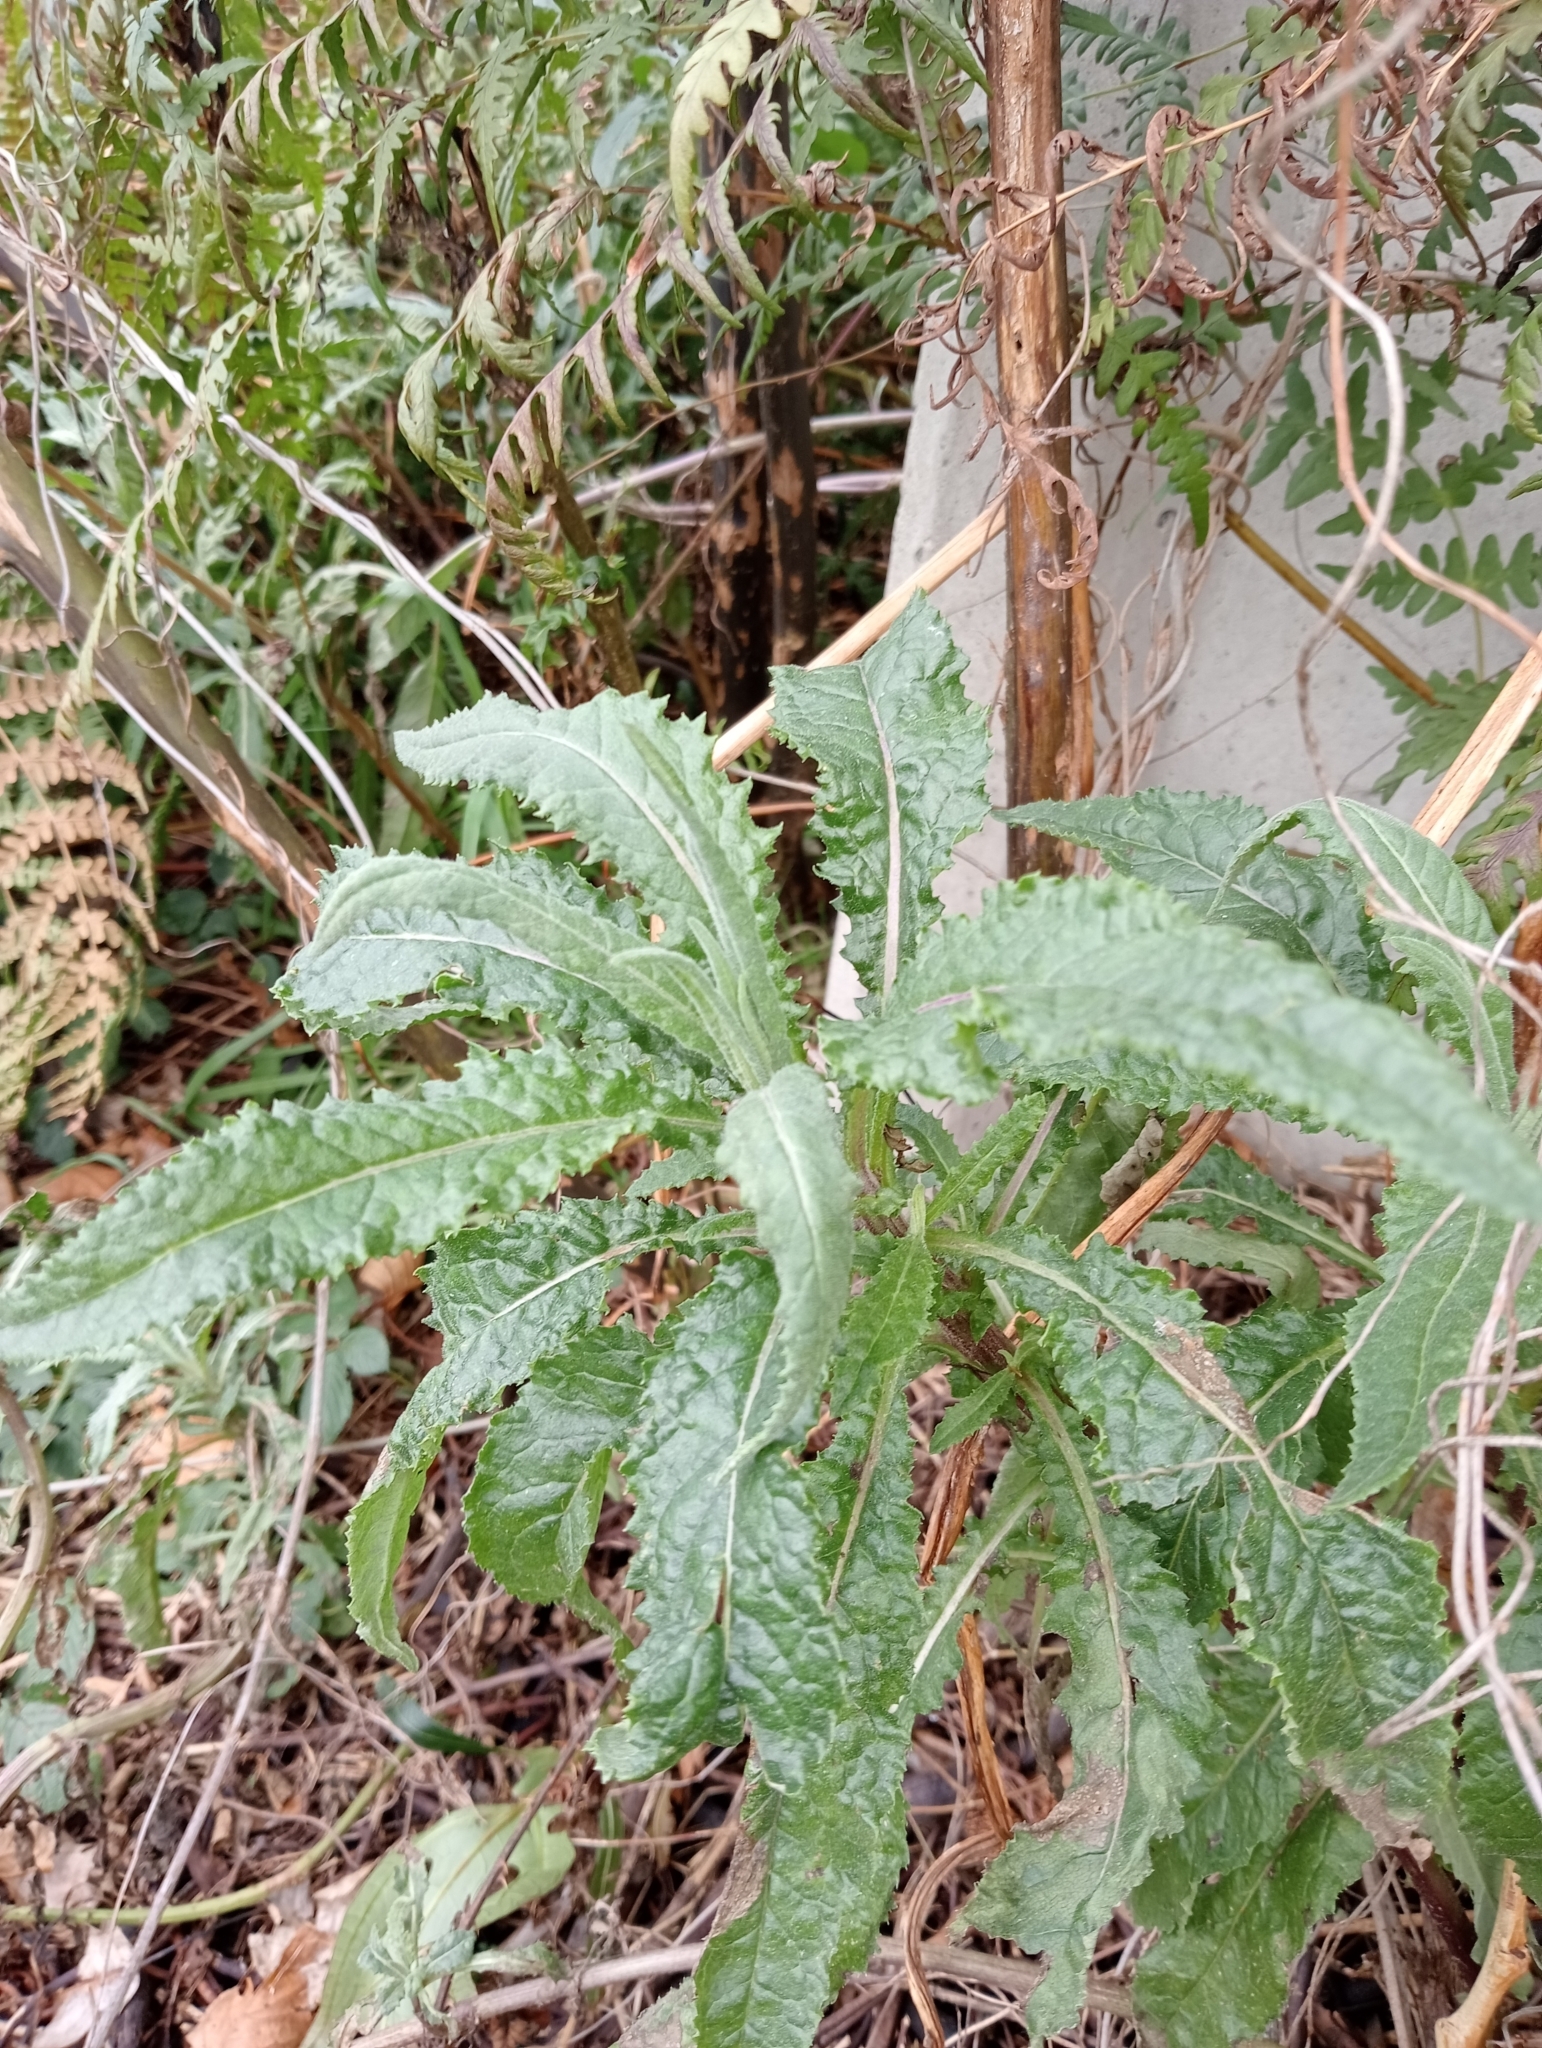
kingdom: Plantae
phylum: Tracheophyta
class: Magnoliopsida
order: Asterales
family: Asteraceae
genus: Senecio
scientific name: Senecio minimus
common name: Toothed fireweed
